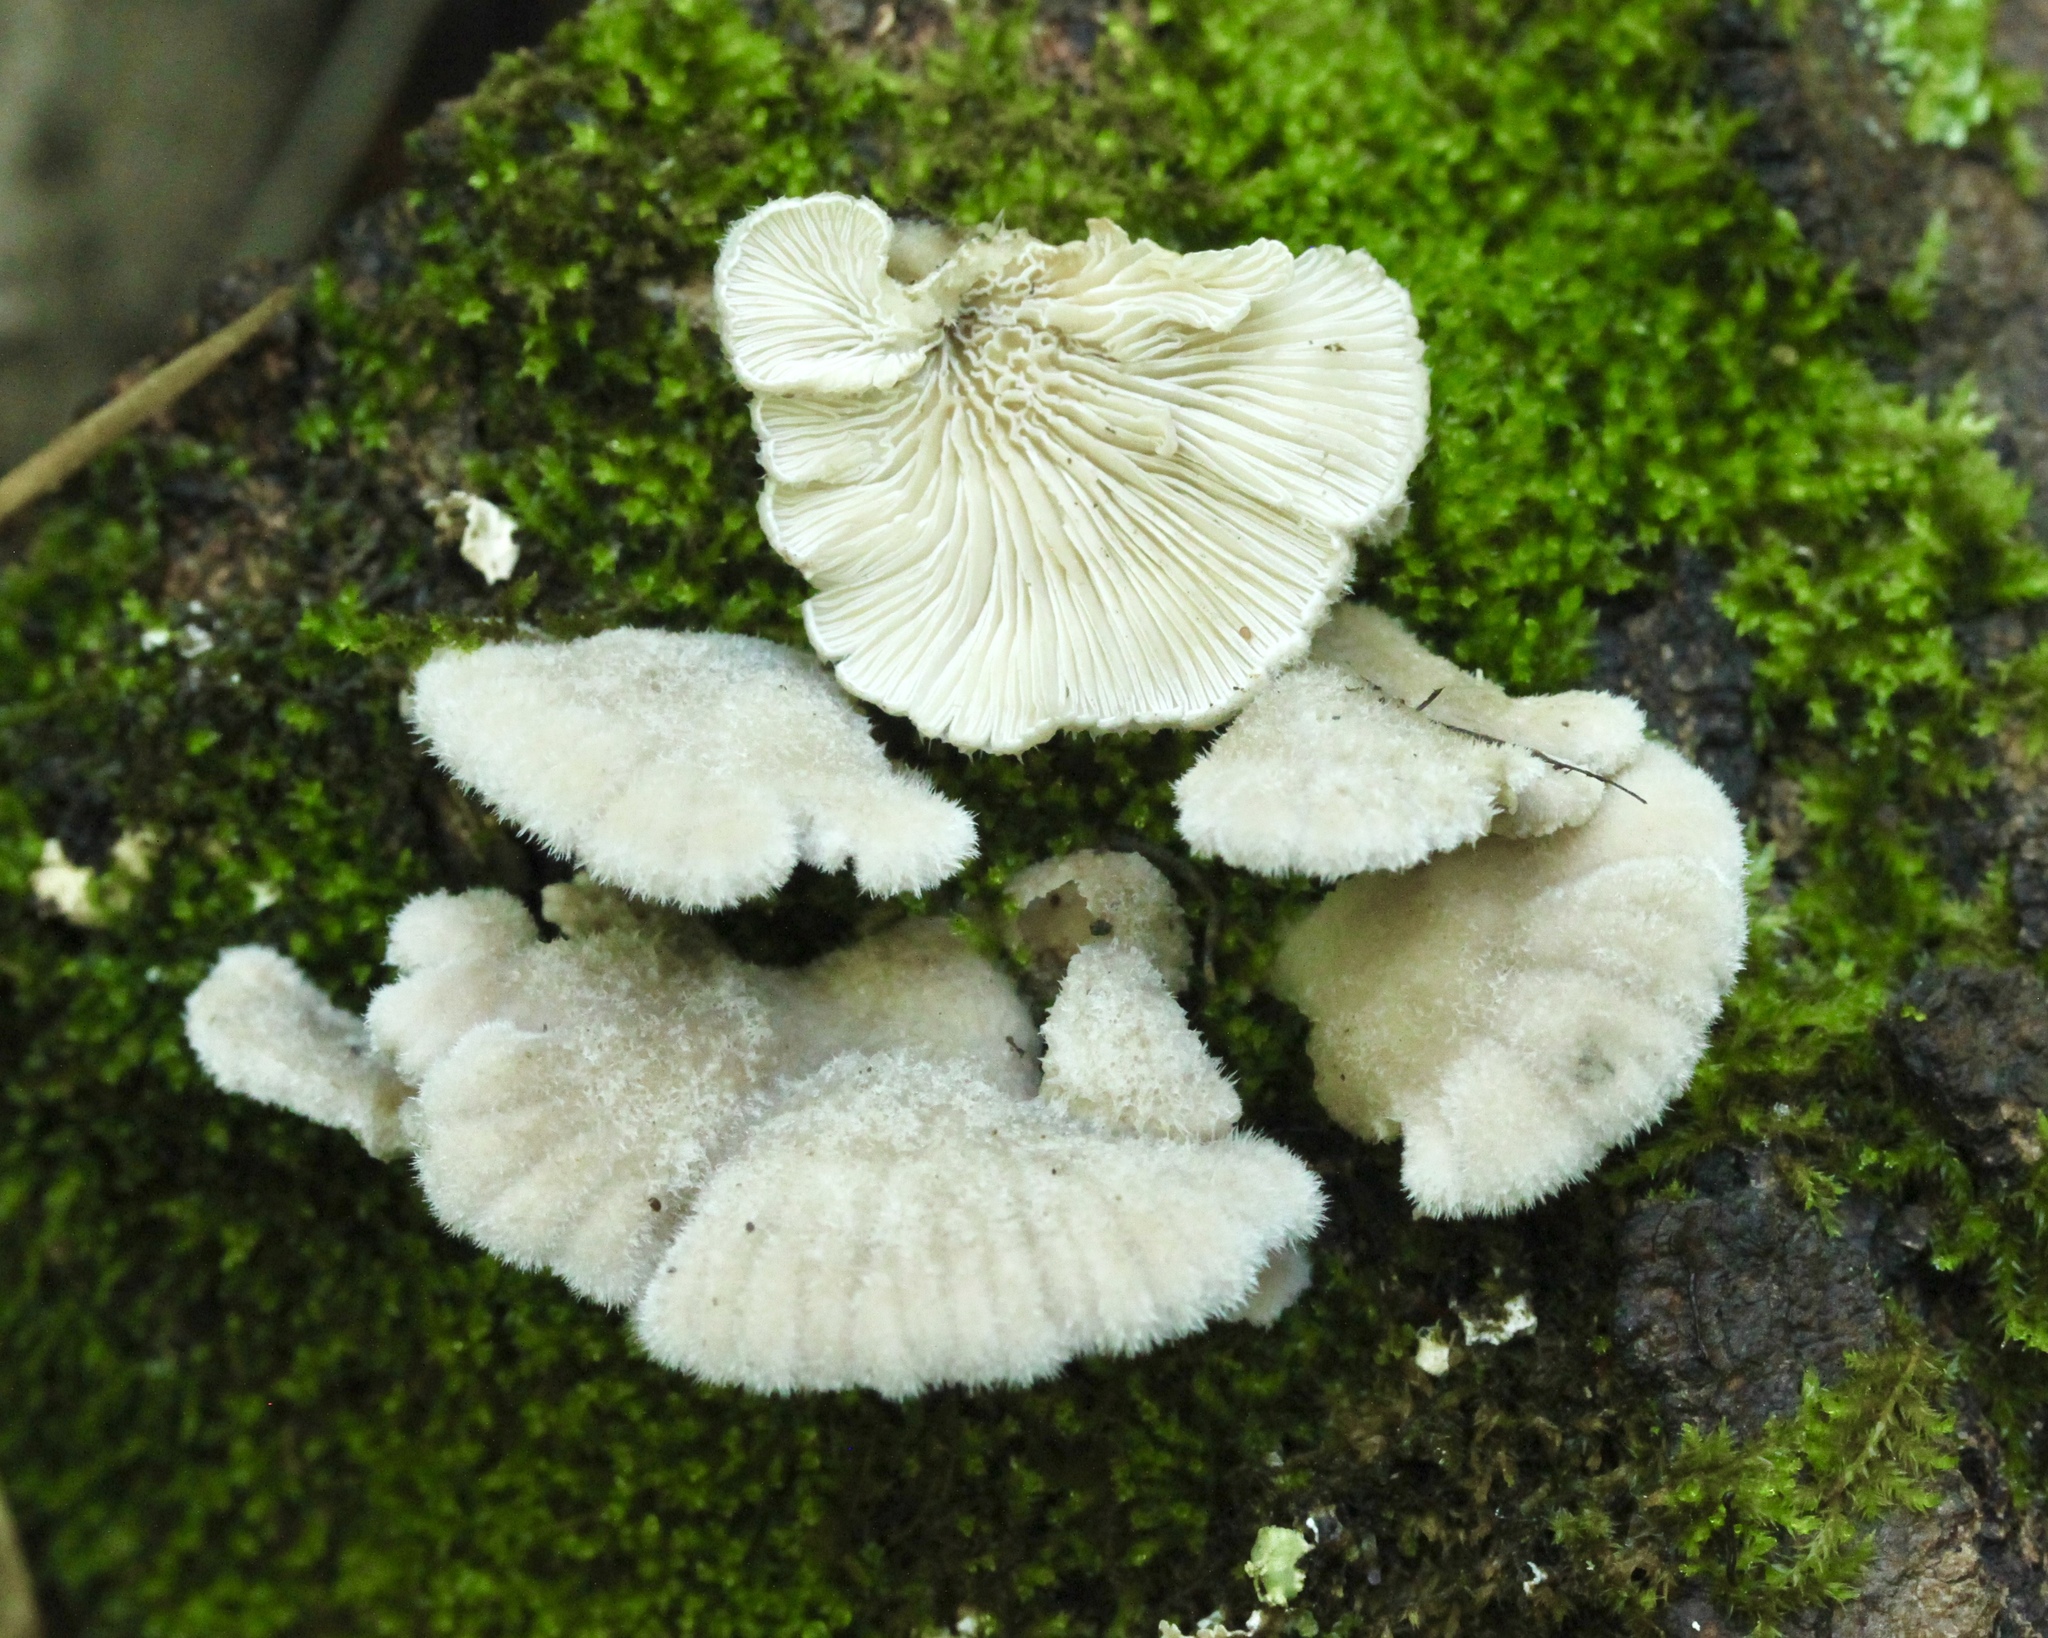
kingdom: Fungi
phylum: Basidiomycota
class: Agaricomycetes
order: Agaricales
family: Schizophyllaceae
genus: Schizophyllum
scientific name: Schizophyllum commune
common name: Common porecrust
